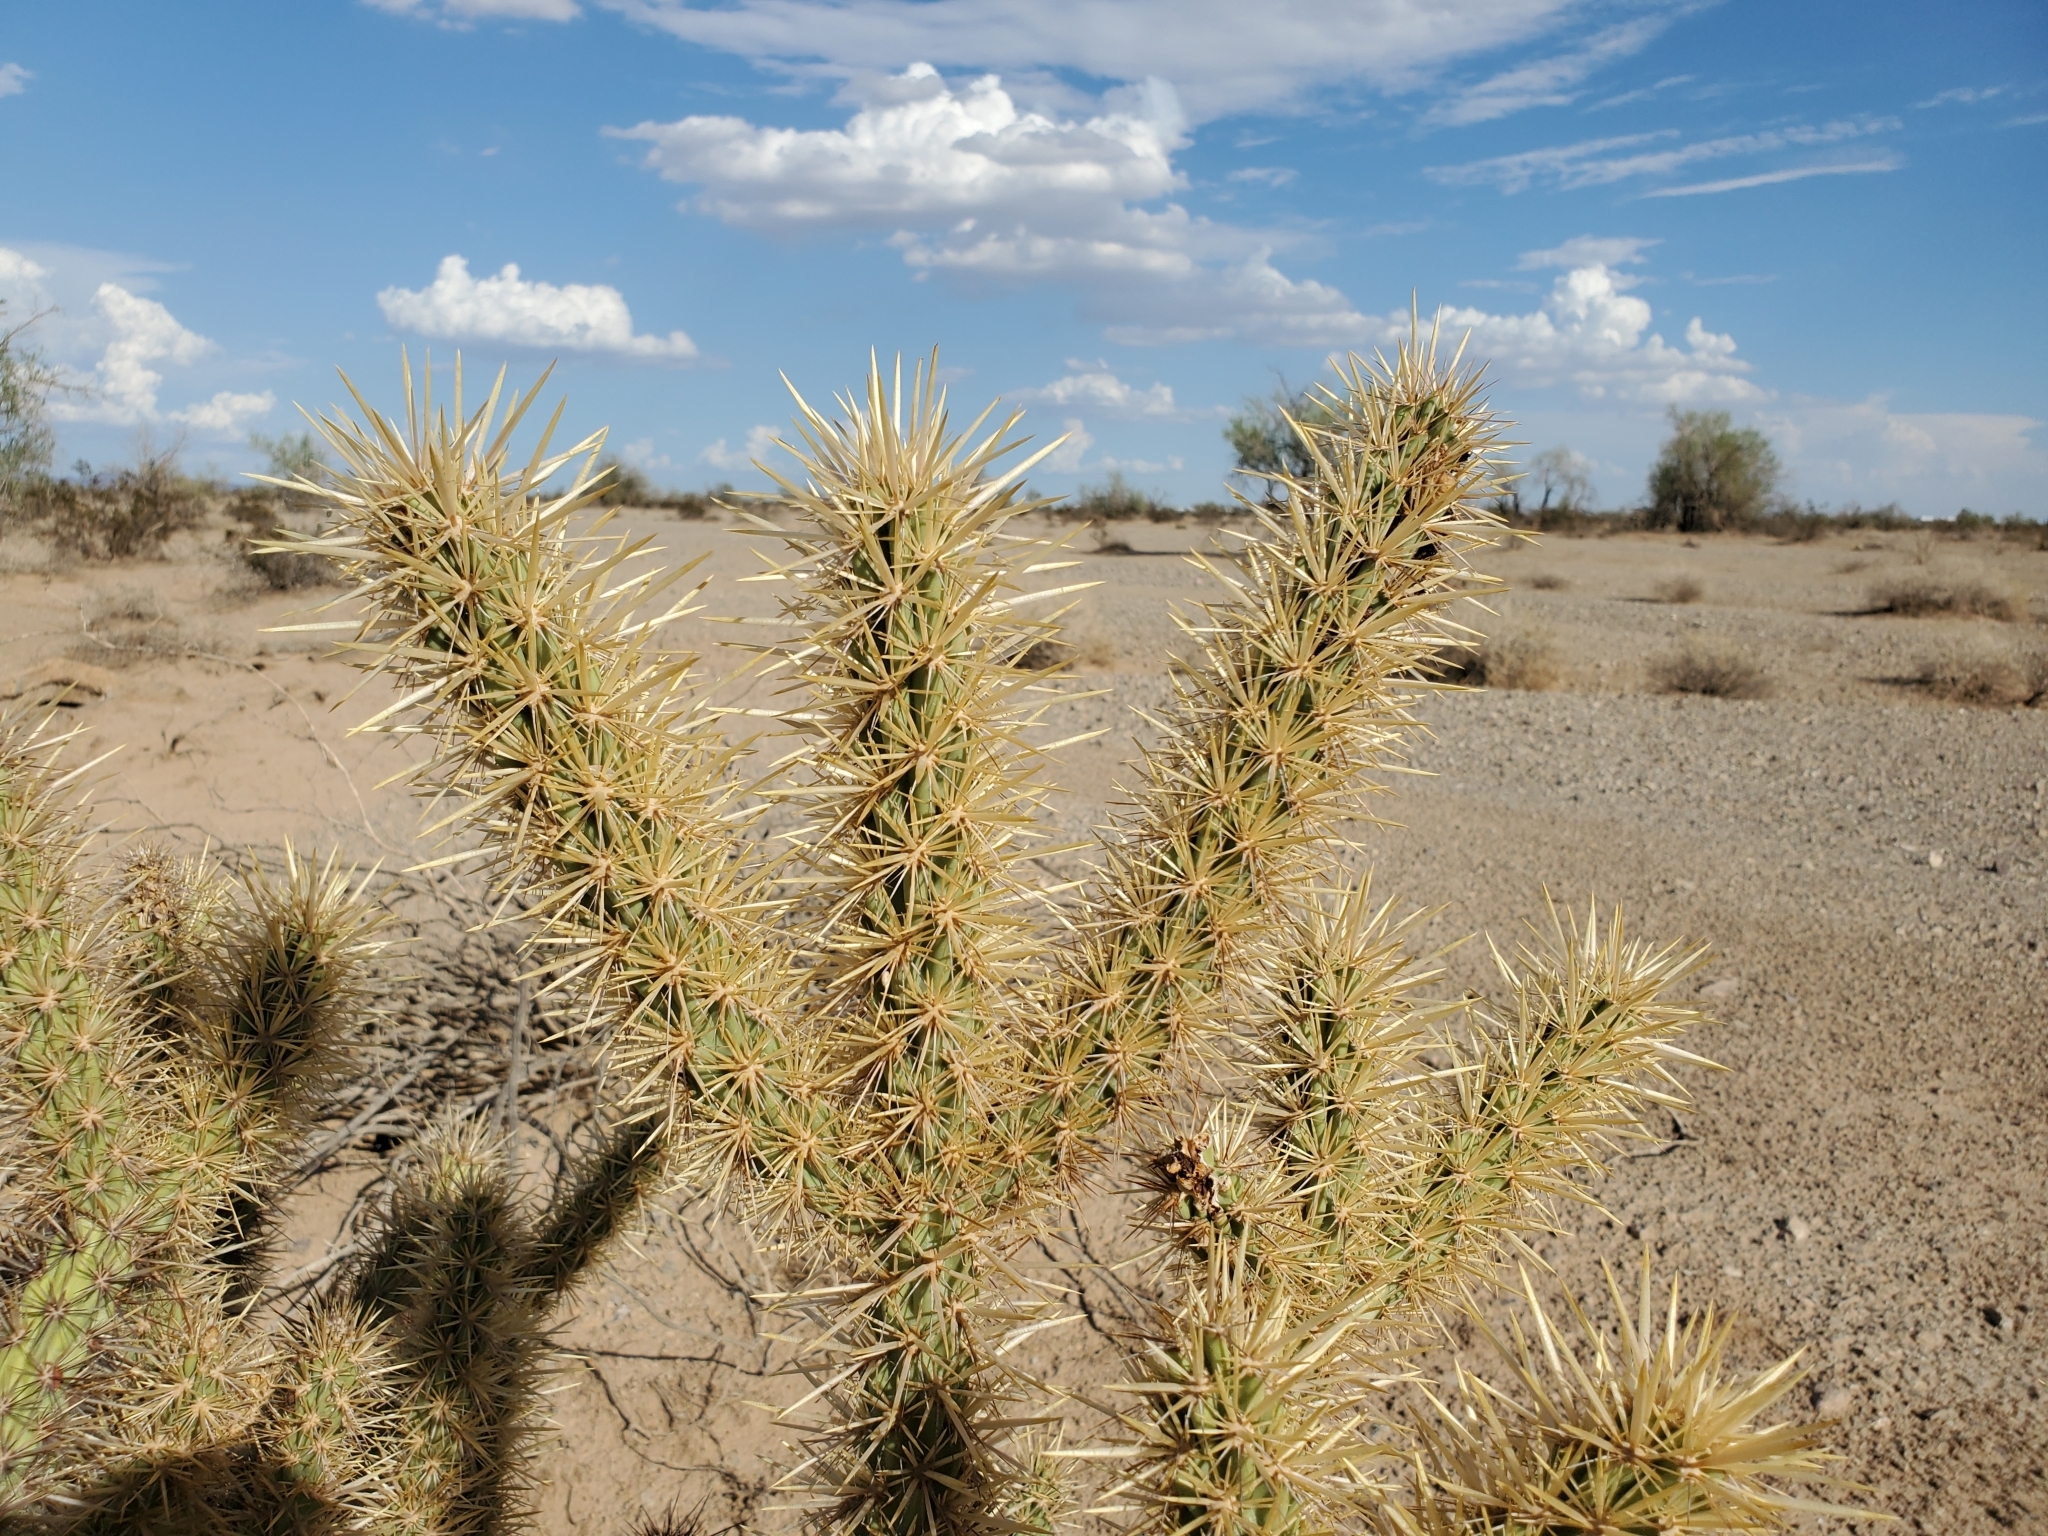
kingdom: Plantae
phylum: Tracheophyta
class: Magnoliopsida
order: Caryophyllales
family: Cactaceae
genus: Cylindropuntia
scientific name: Cylindropuntia acanthocarpa
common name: Buckhorn cholla
